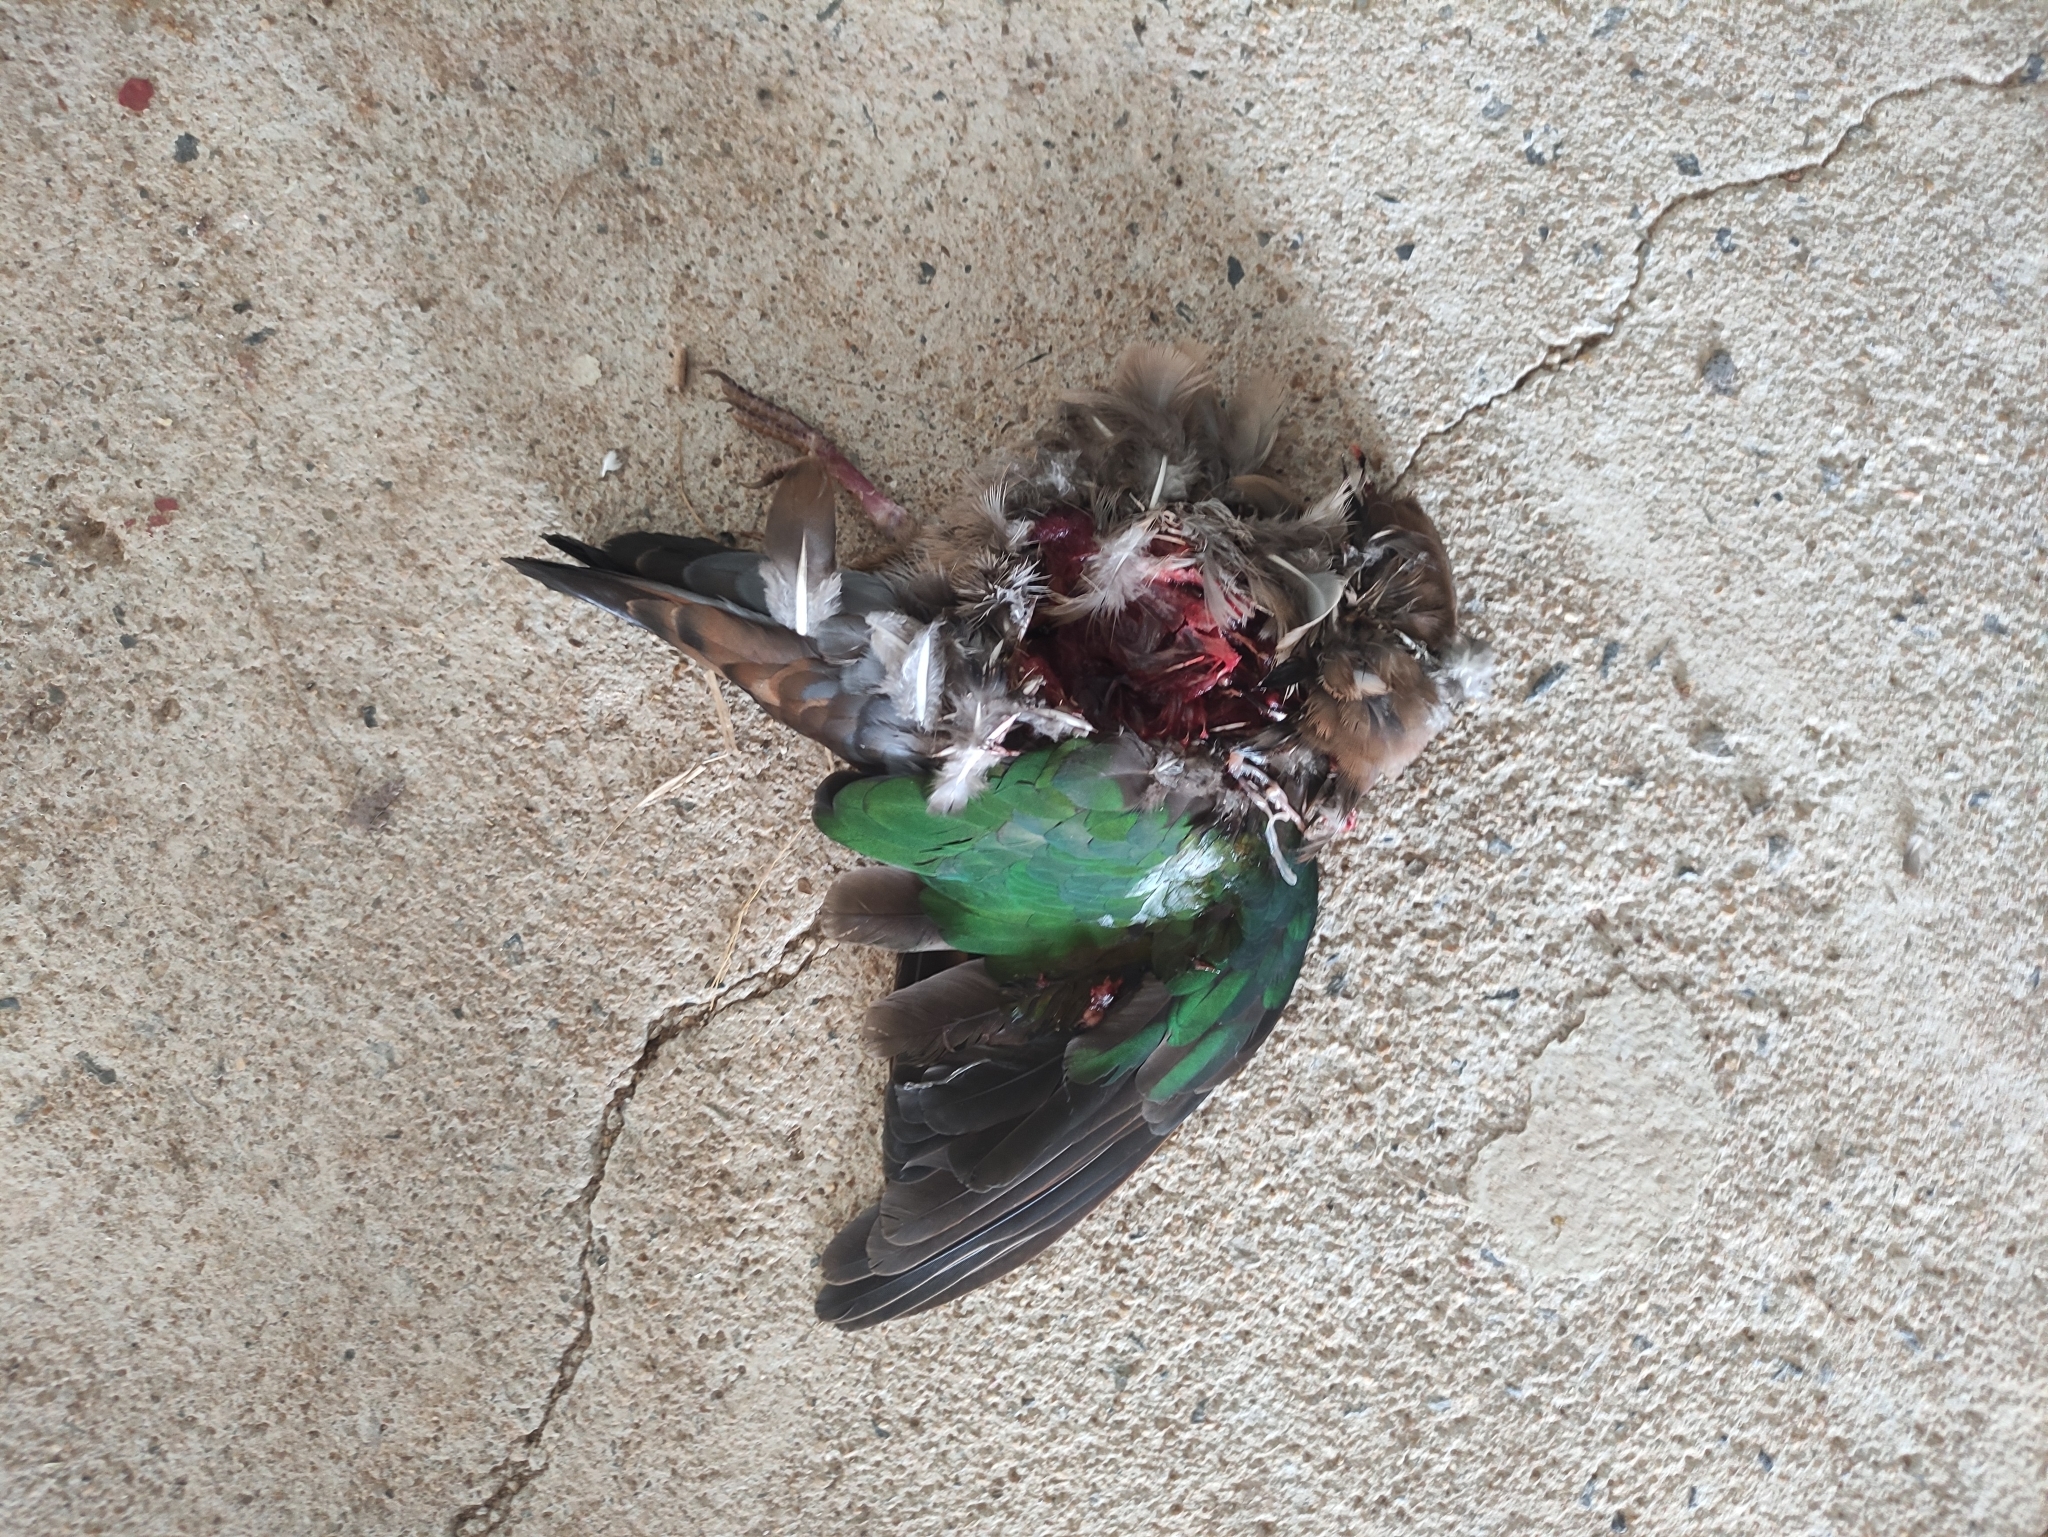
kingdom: Animalia
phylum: Chordata
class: Aves
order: Columbiformes
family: Columbidae
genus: Chalcophaps
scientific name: Chalcophaps indica
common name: Common emerald dove
